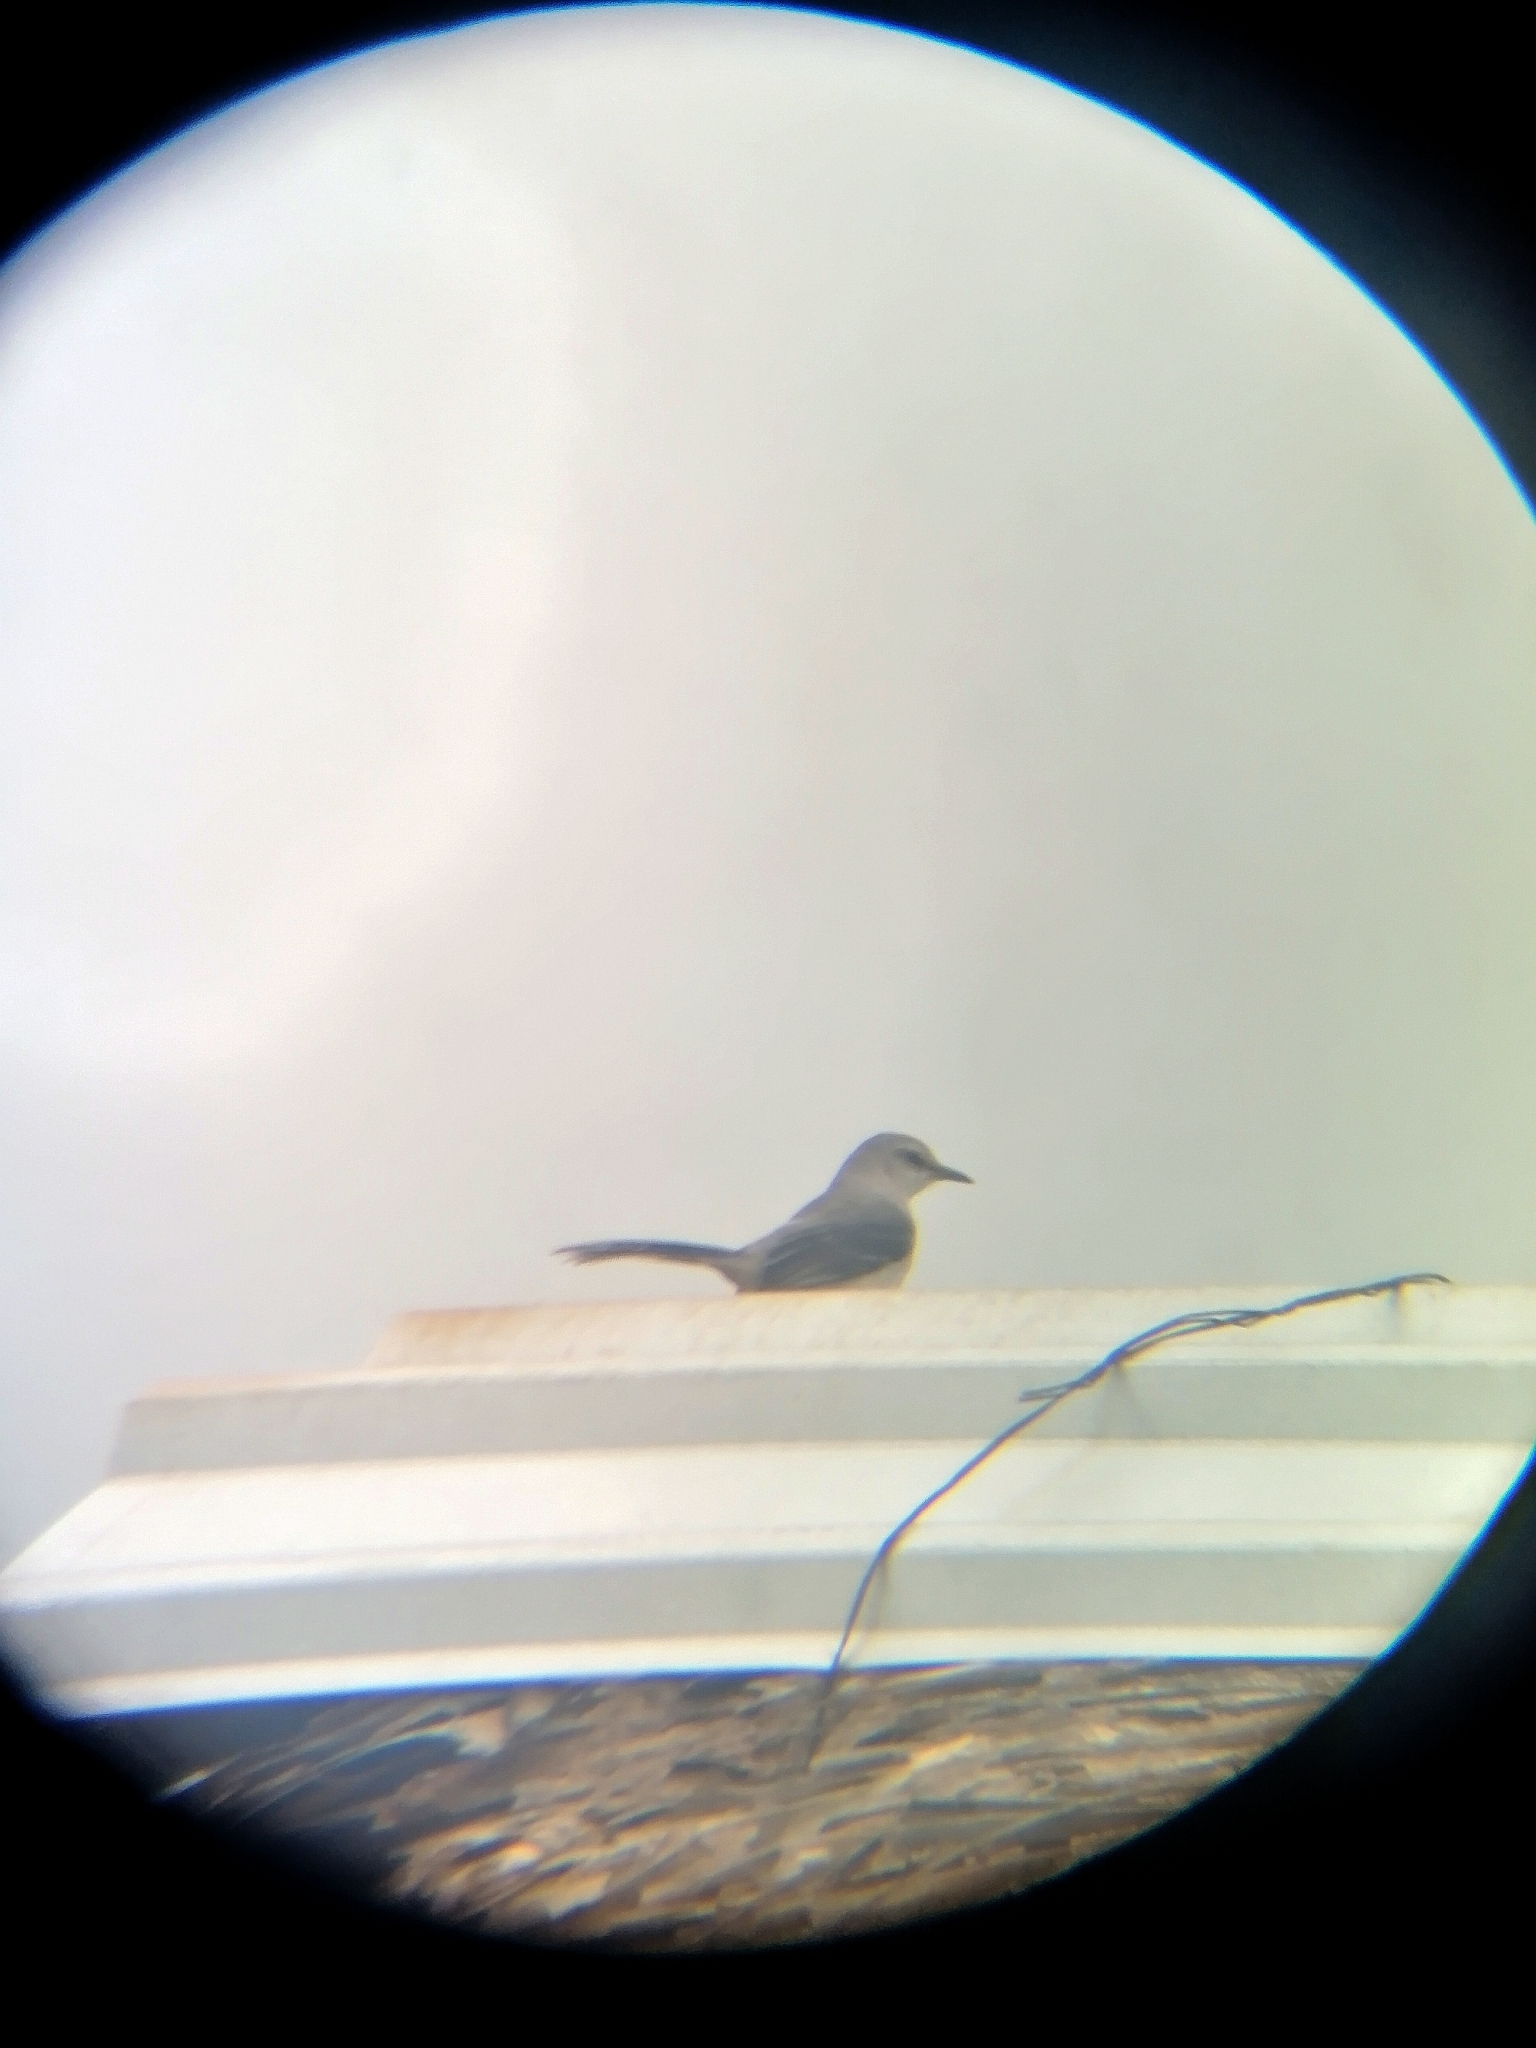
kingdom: Animalia
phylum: Chordata
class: Aves
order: Passeriformes
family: Mimidae
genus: Mimus
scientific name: Mimus gilvus
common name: Tropical mockingbird
